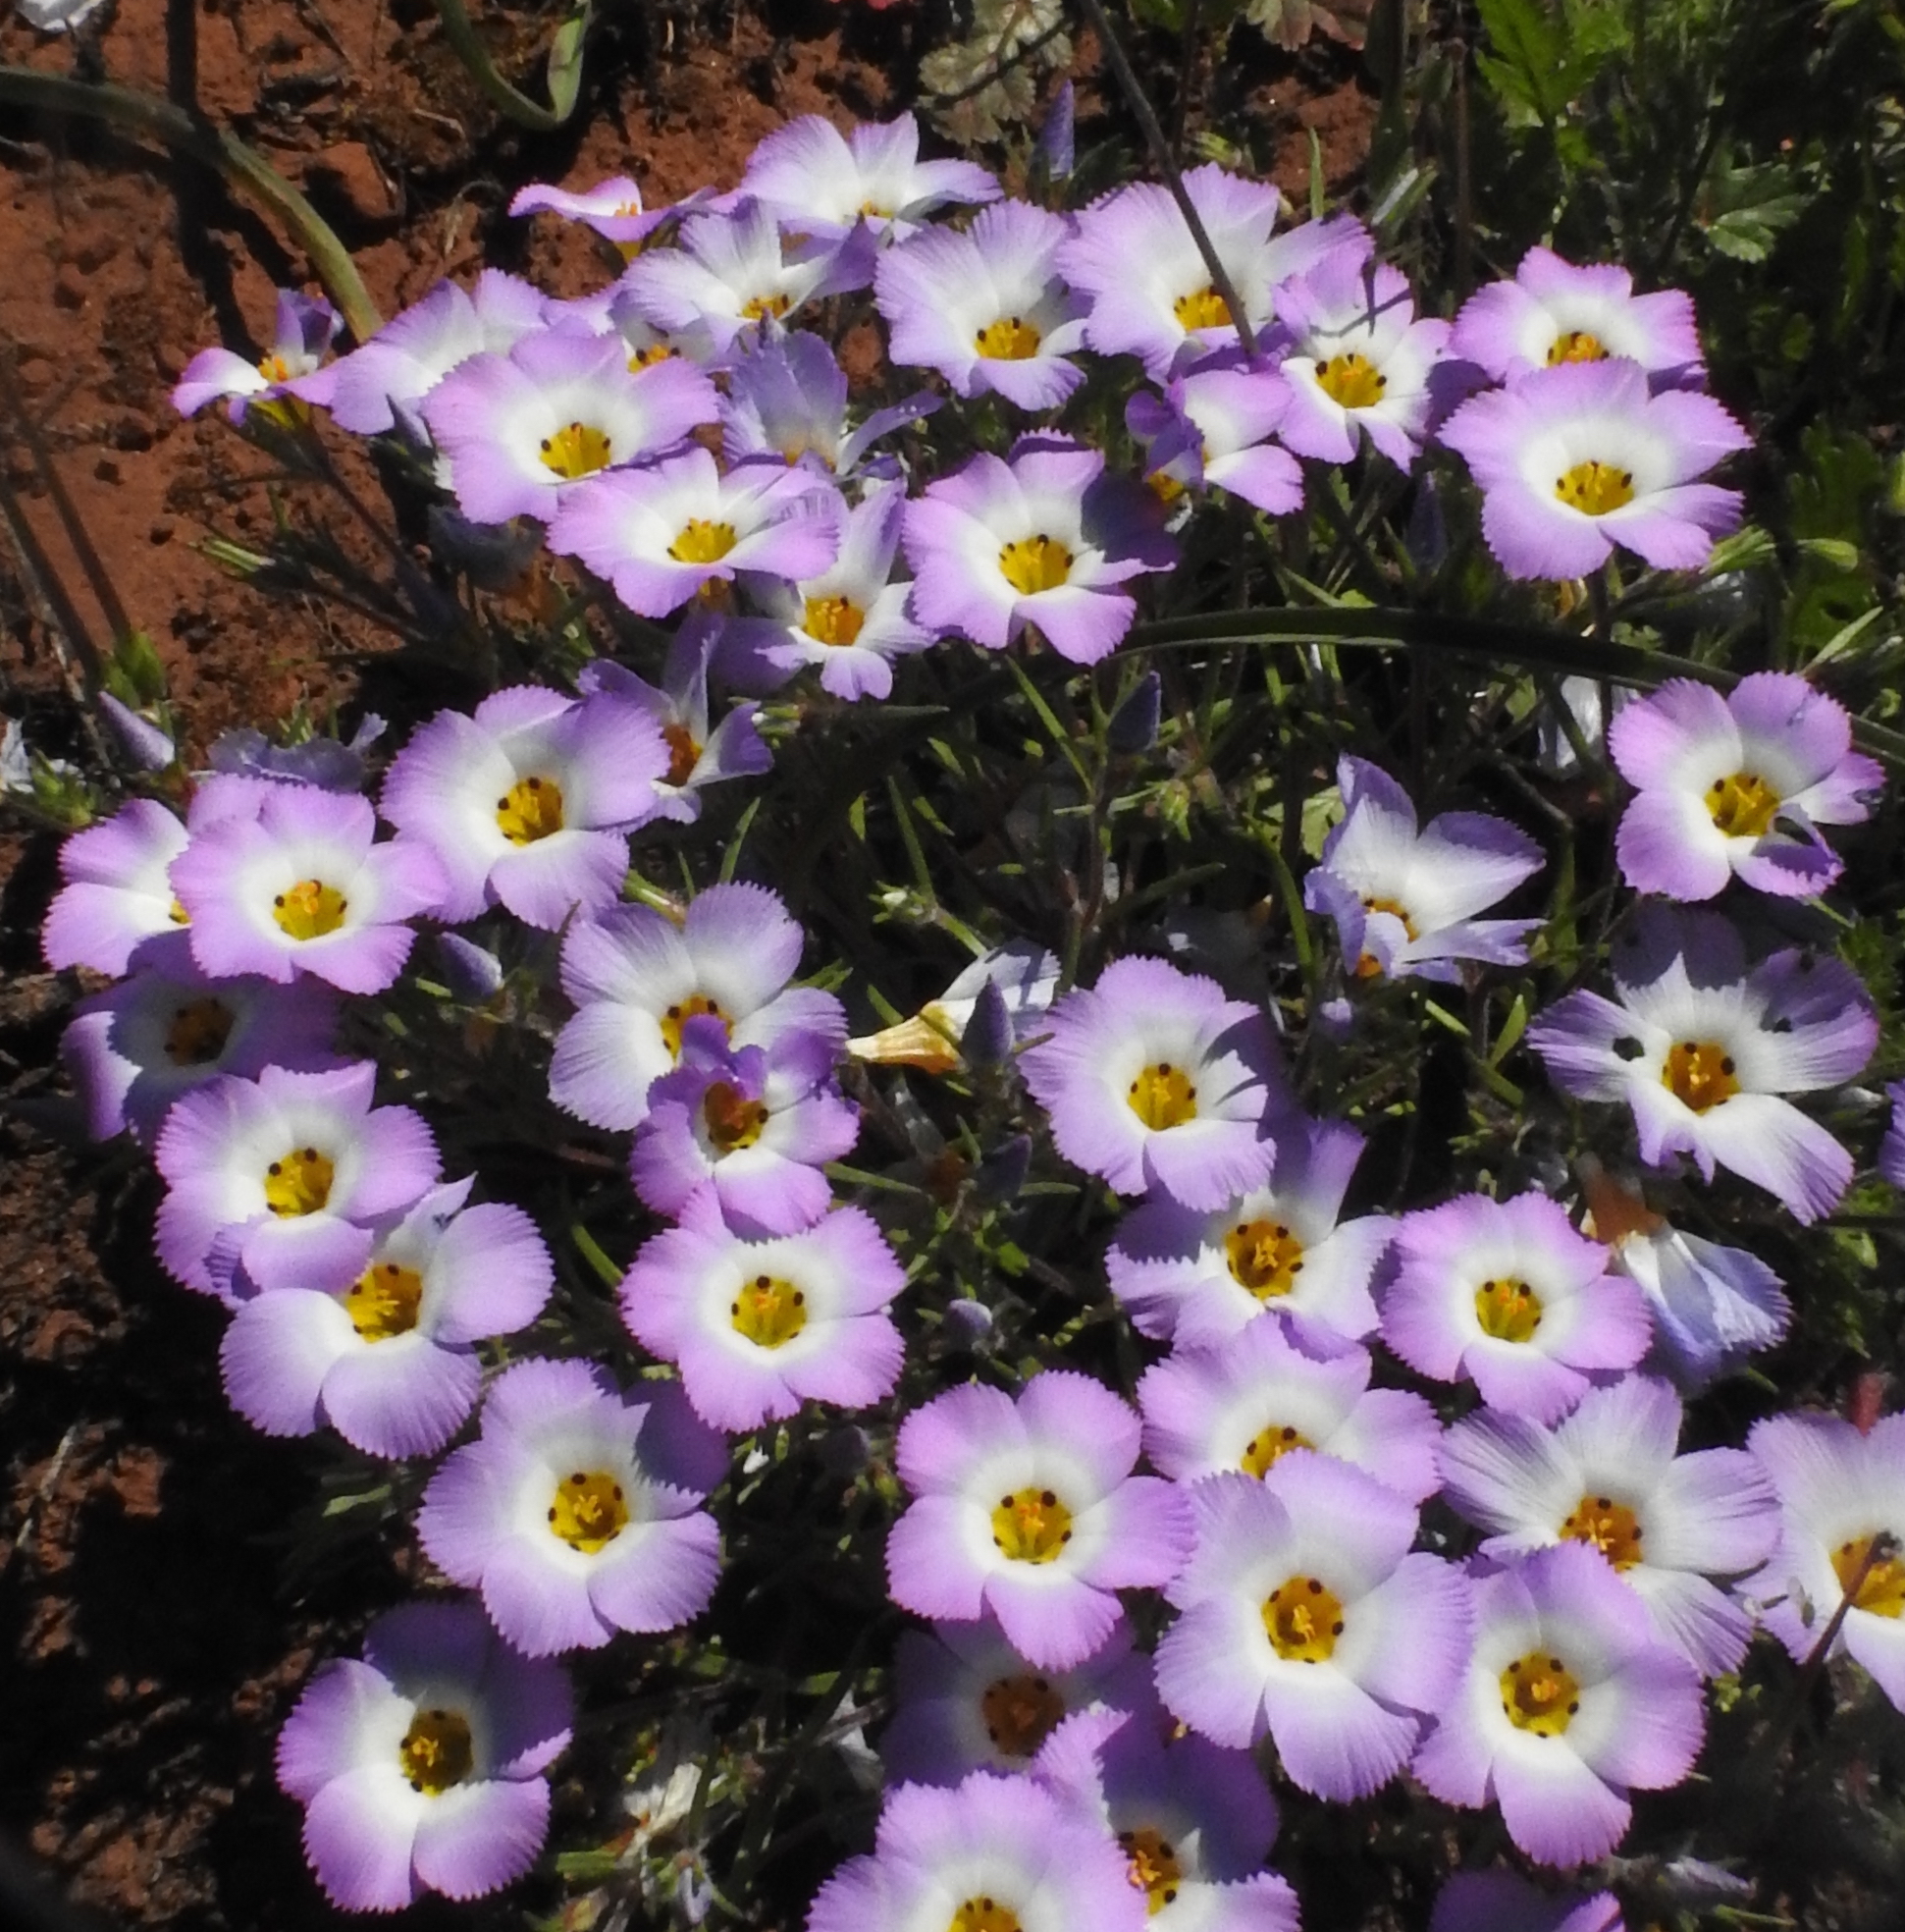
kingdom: Plantae
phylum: Tracheophyta
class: Magnoliopsida
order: Ericales
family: Polemoniaceae
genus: Linanthus
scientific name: Linanthus dianthiflorus
